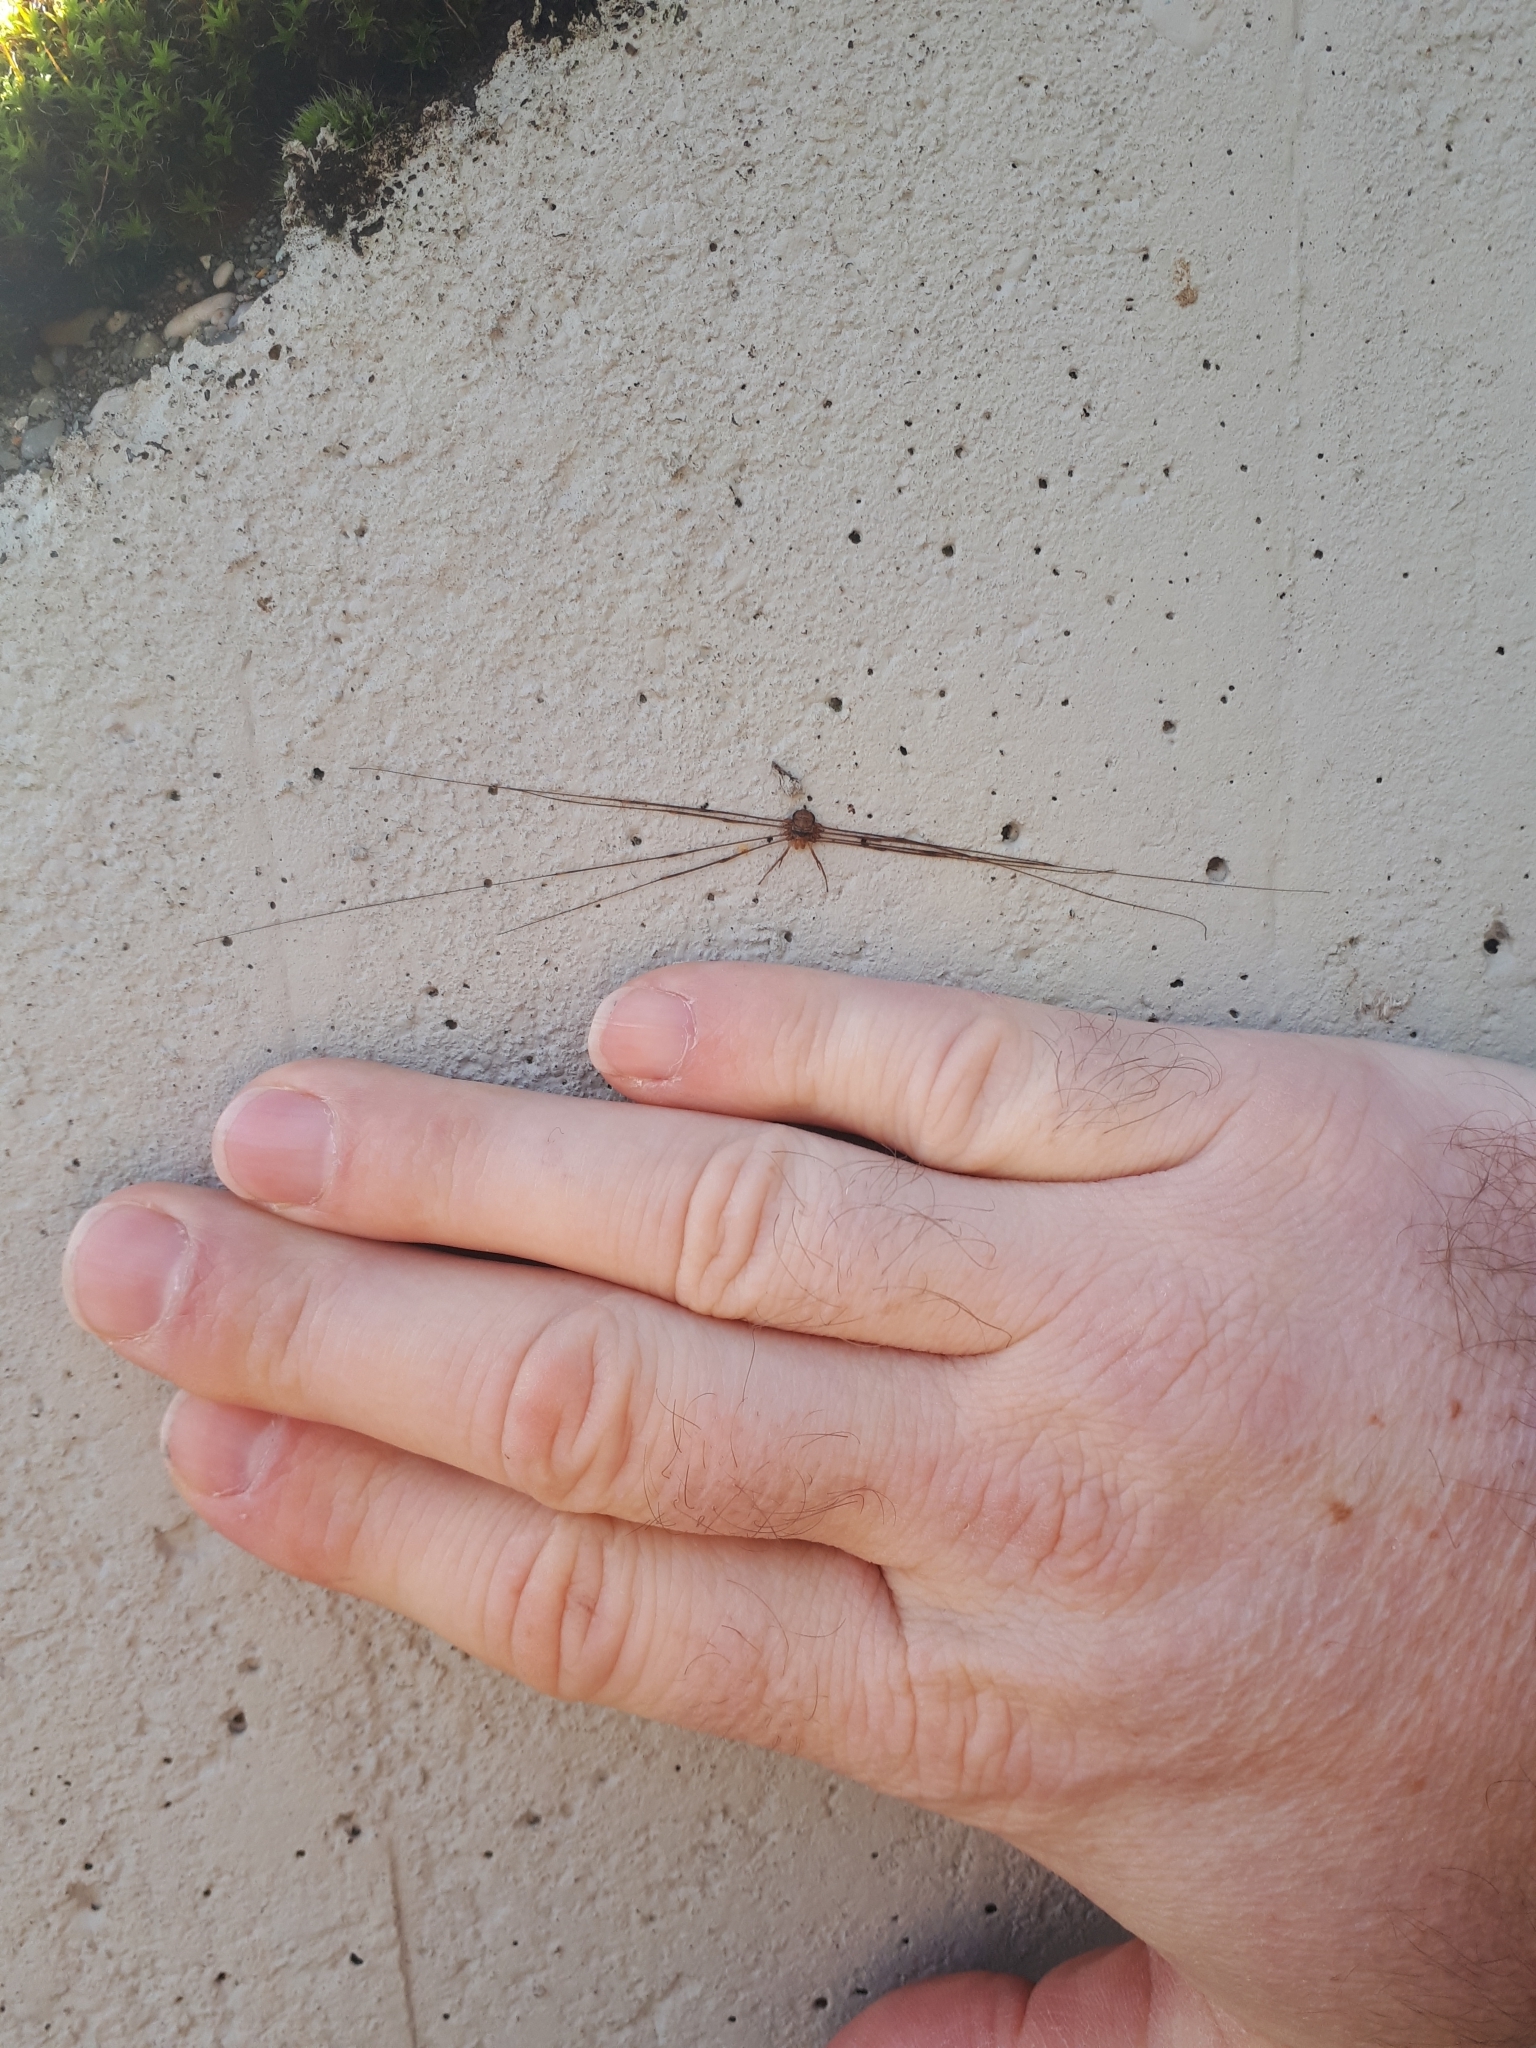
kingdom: Animalia
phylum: Arthropoda
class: Arachnida
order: Opiliones
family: Phalangiidae
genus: Dicranopalpus
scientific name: Dicranopalpus ramosus
